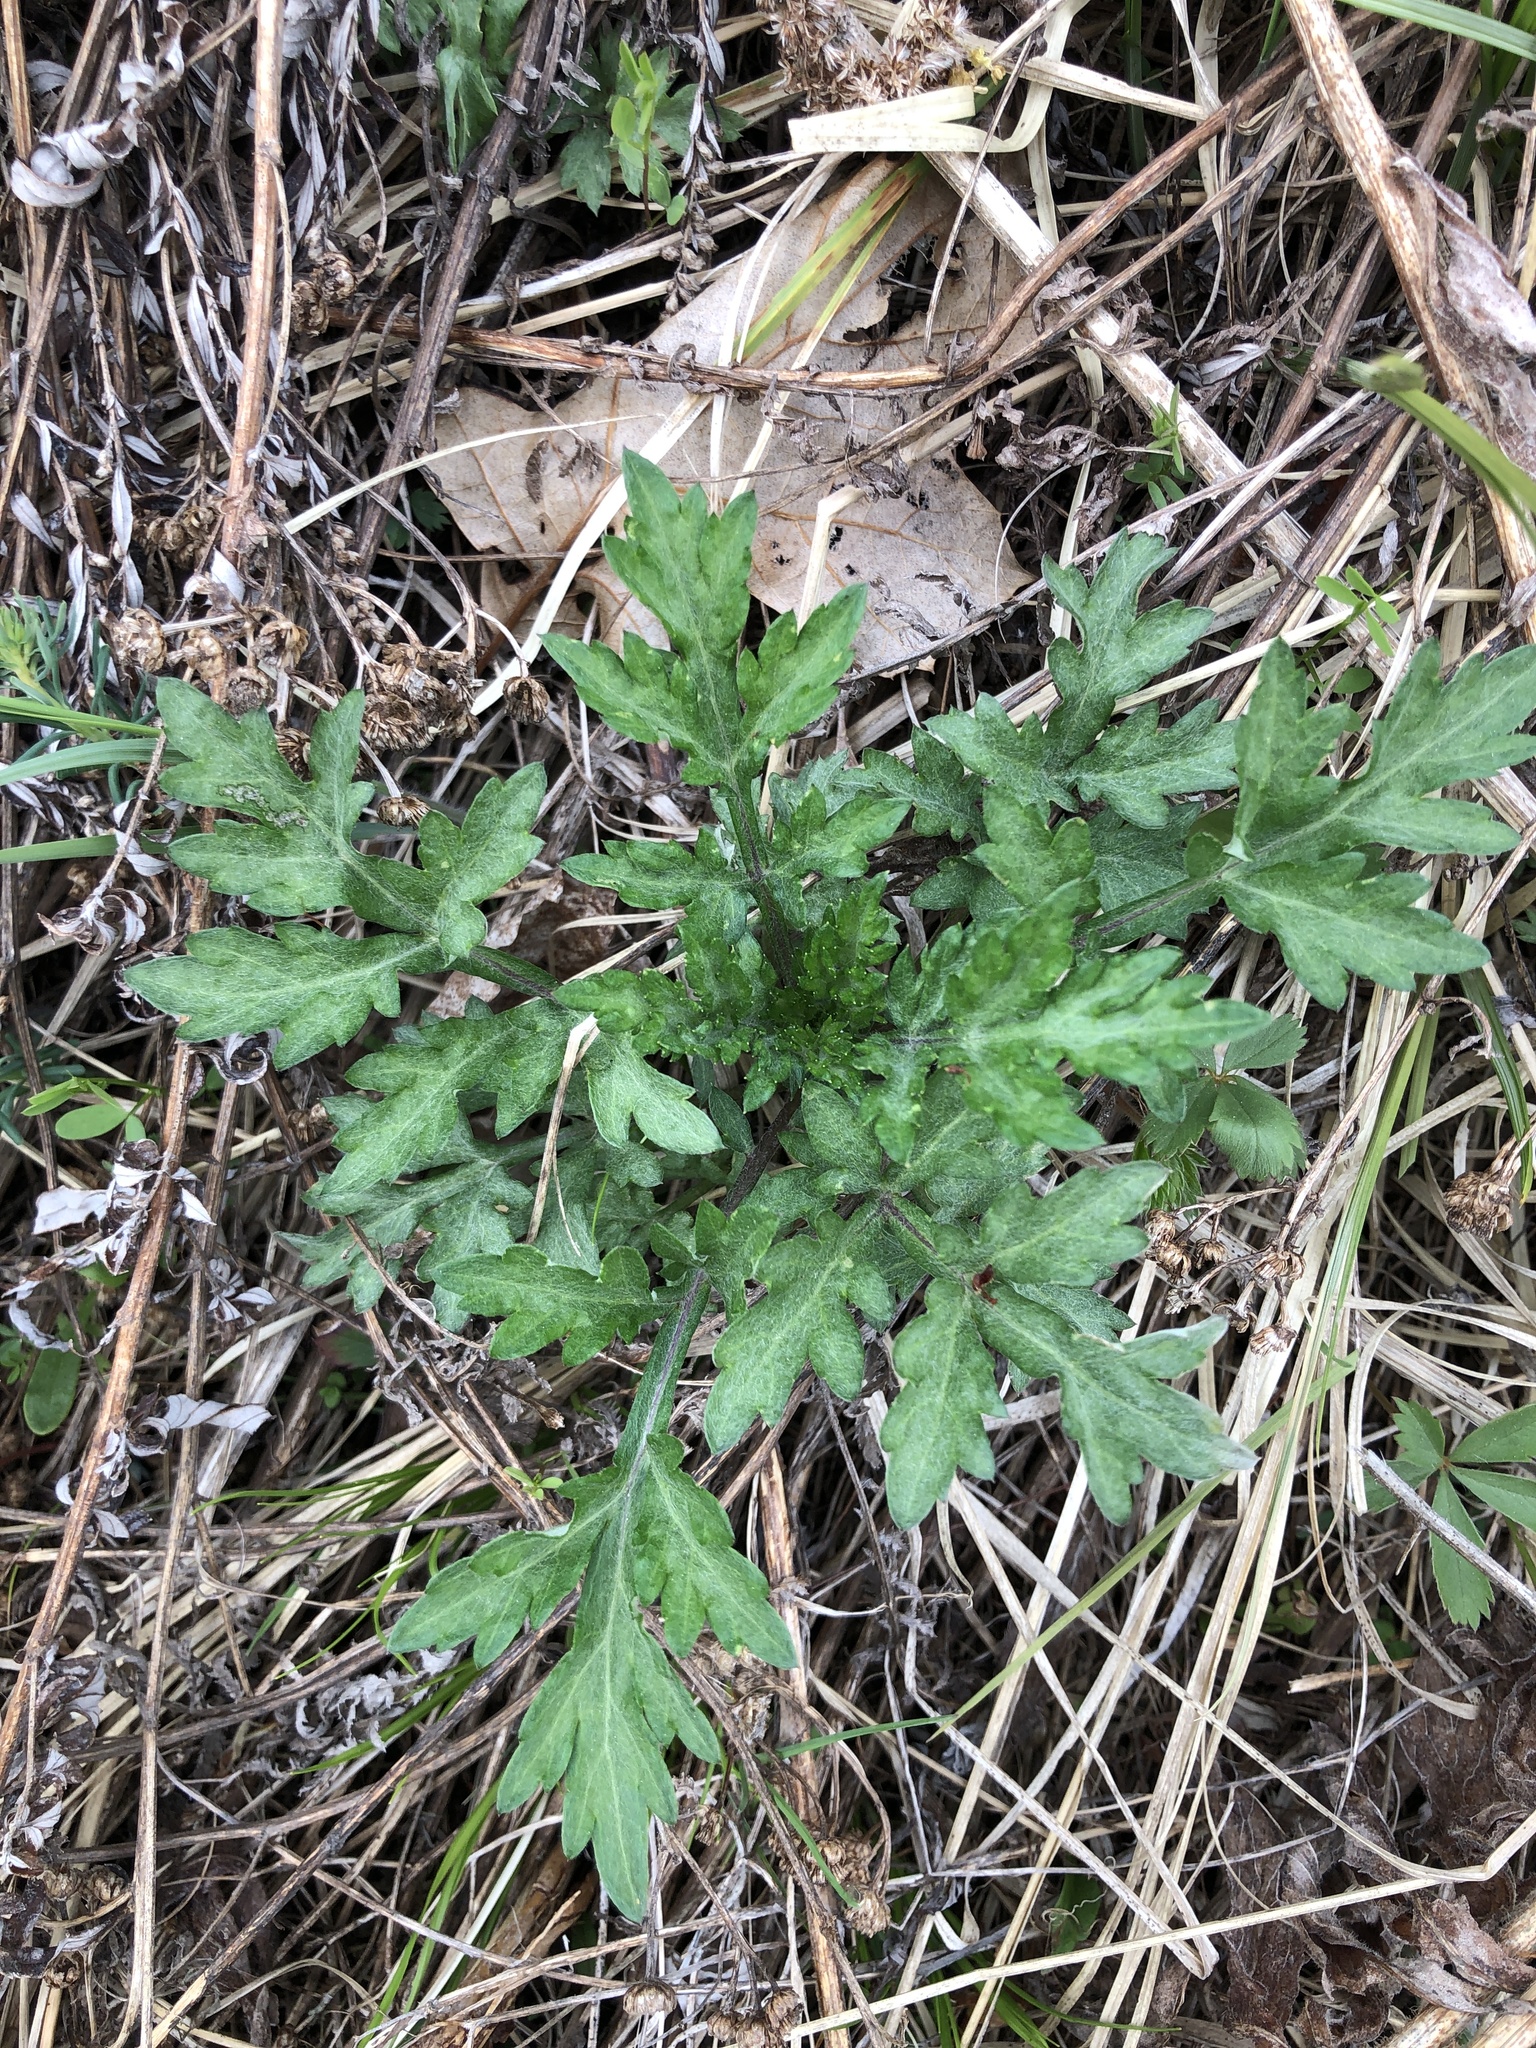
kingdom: Plantae
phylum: Tracheophyta
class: Magnoliopsida
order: Asterales
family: Asteraceae
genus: Artemisia
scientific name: Artemisia vulgaris
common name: Mugwort
